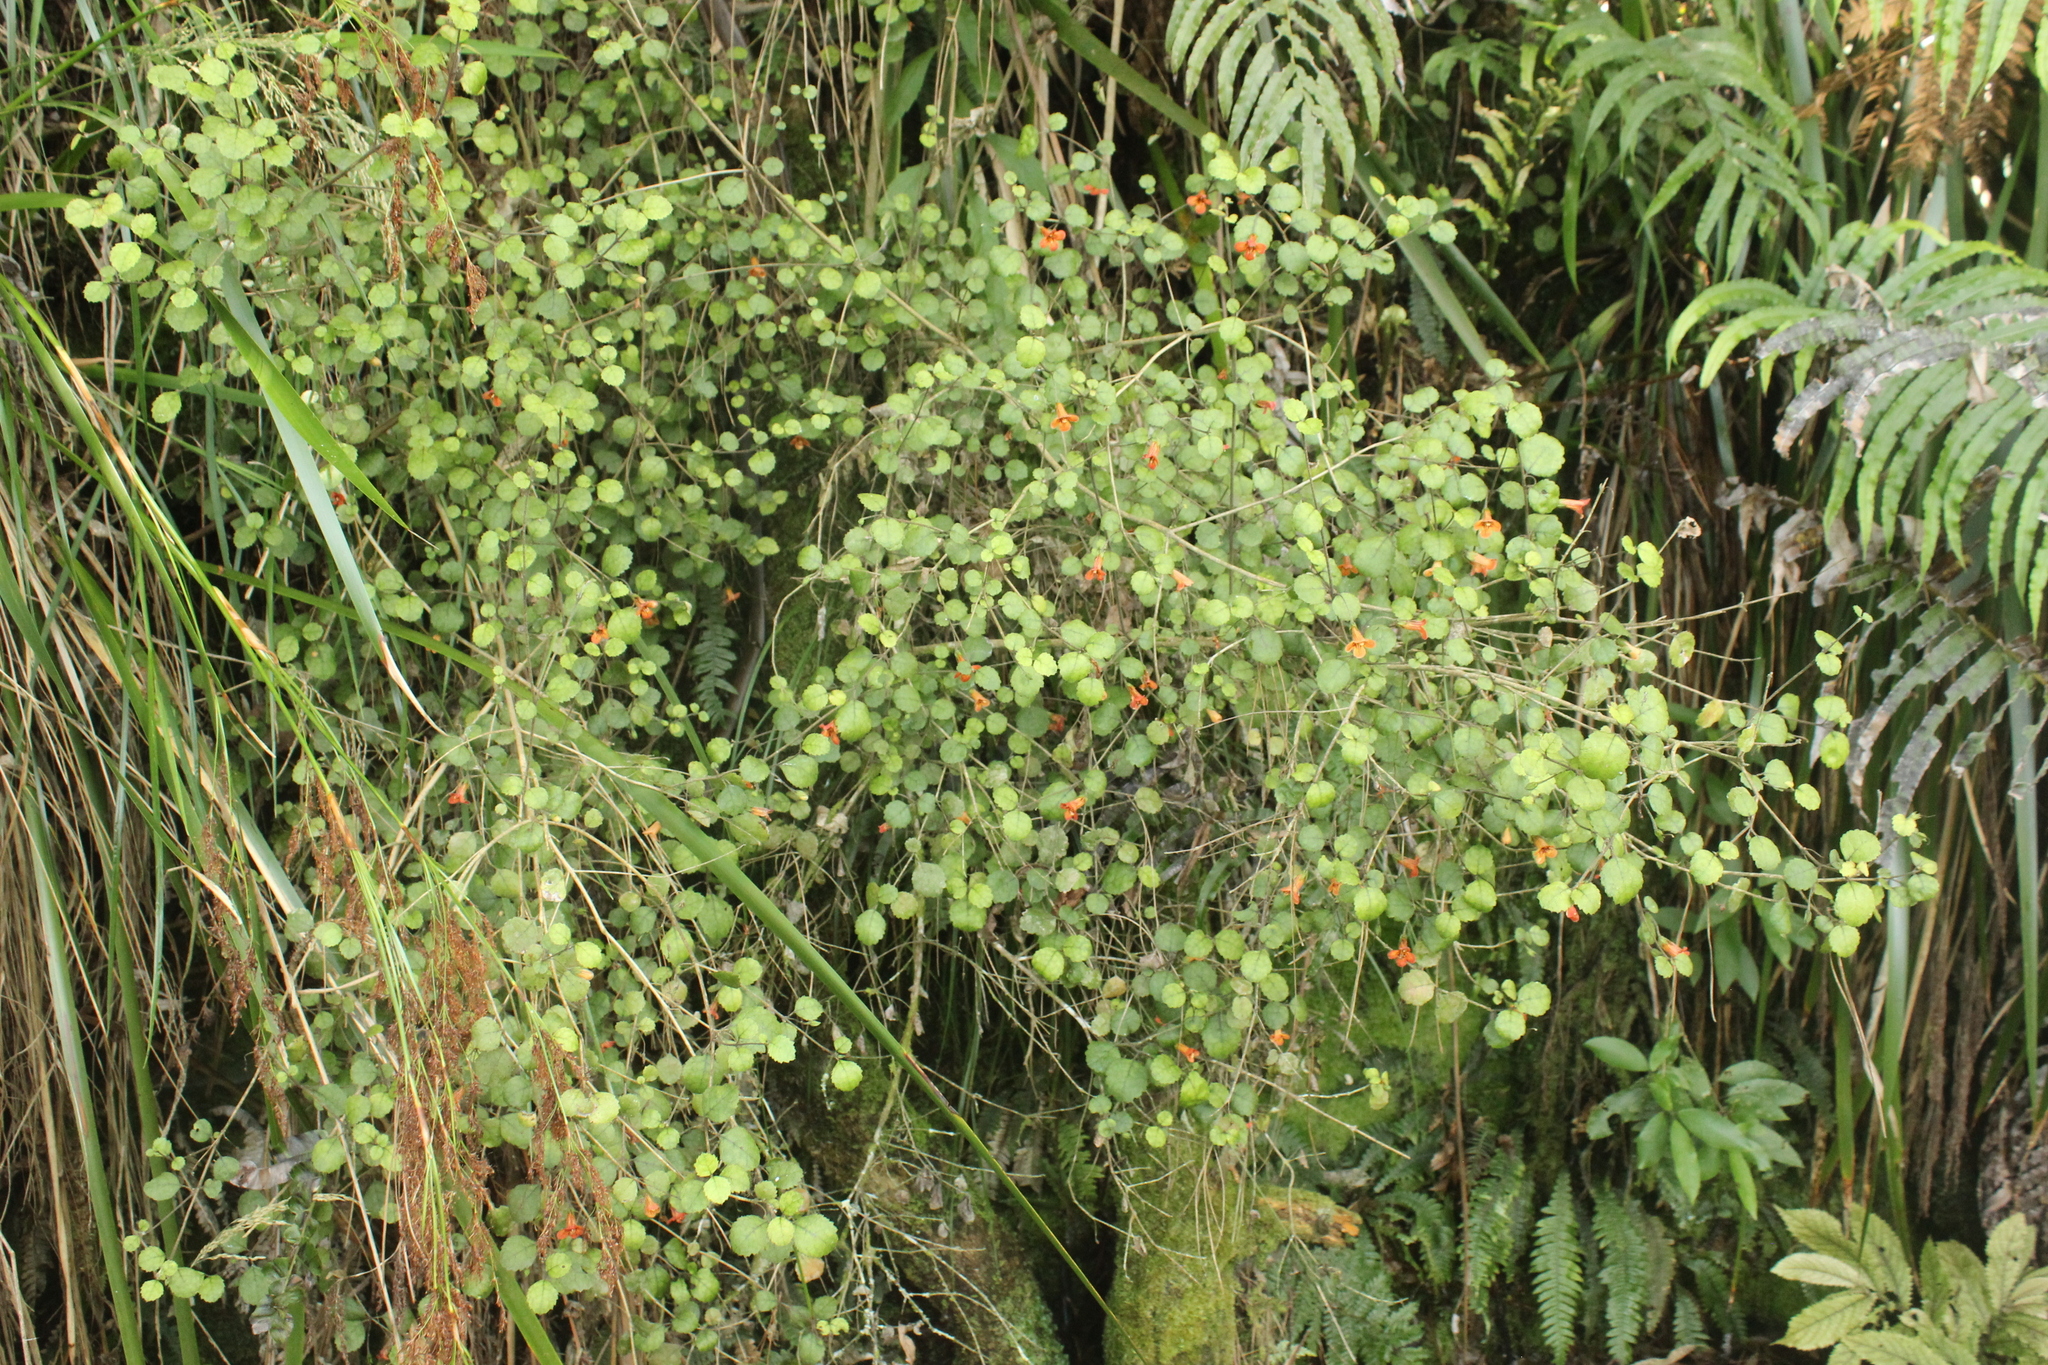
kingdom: Plantae
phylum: Tracheophyta
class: Magnoliopsida
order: Lamiales
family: Gesneriaceae
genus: Rhabdothamnus
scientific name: Rhabdothamnus solandri
